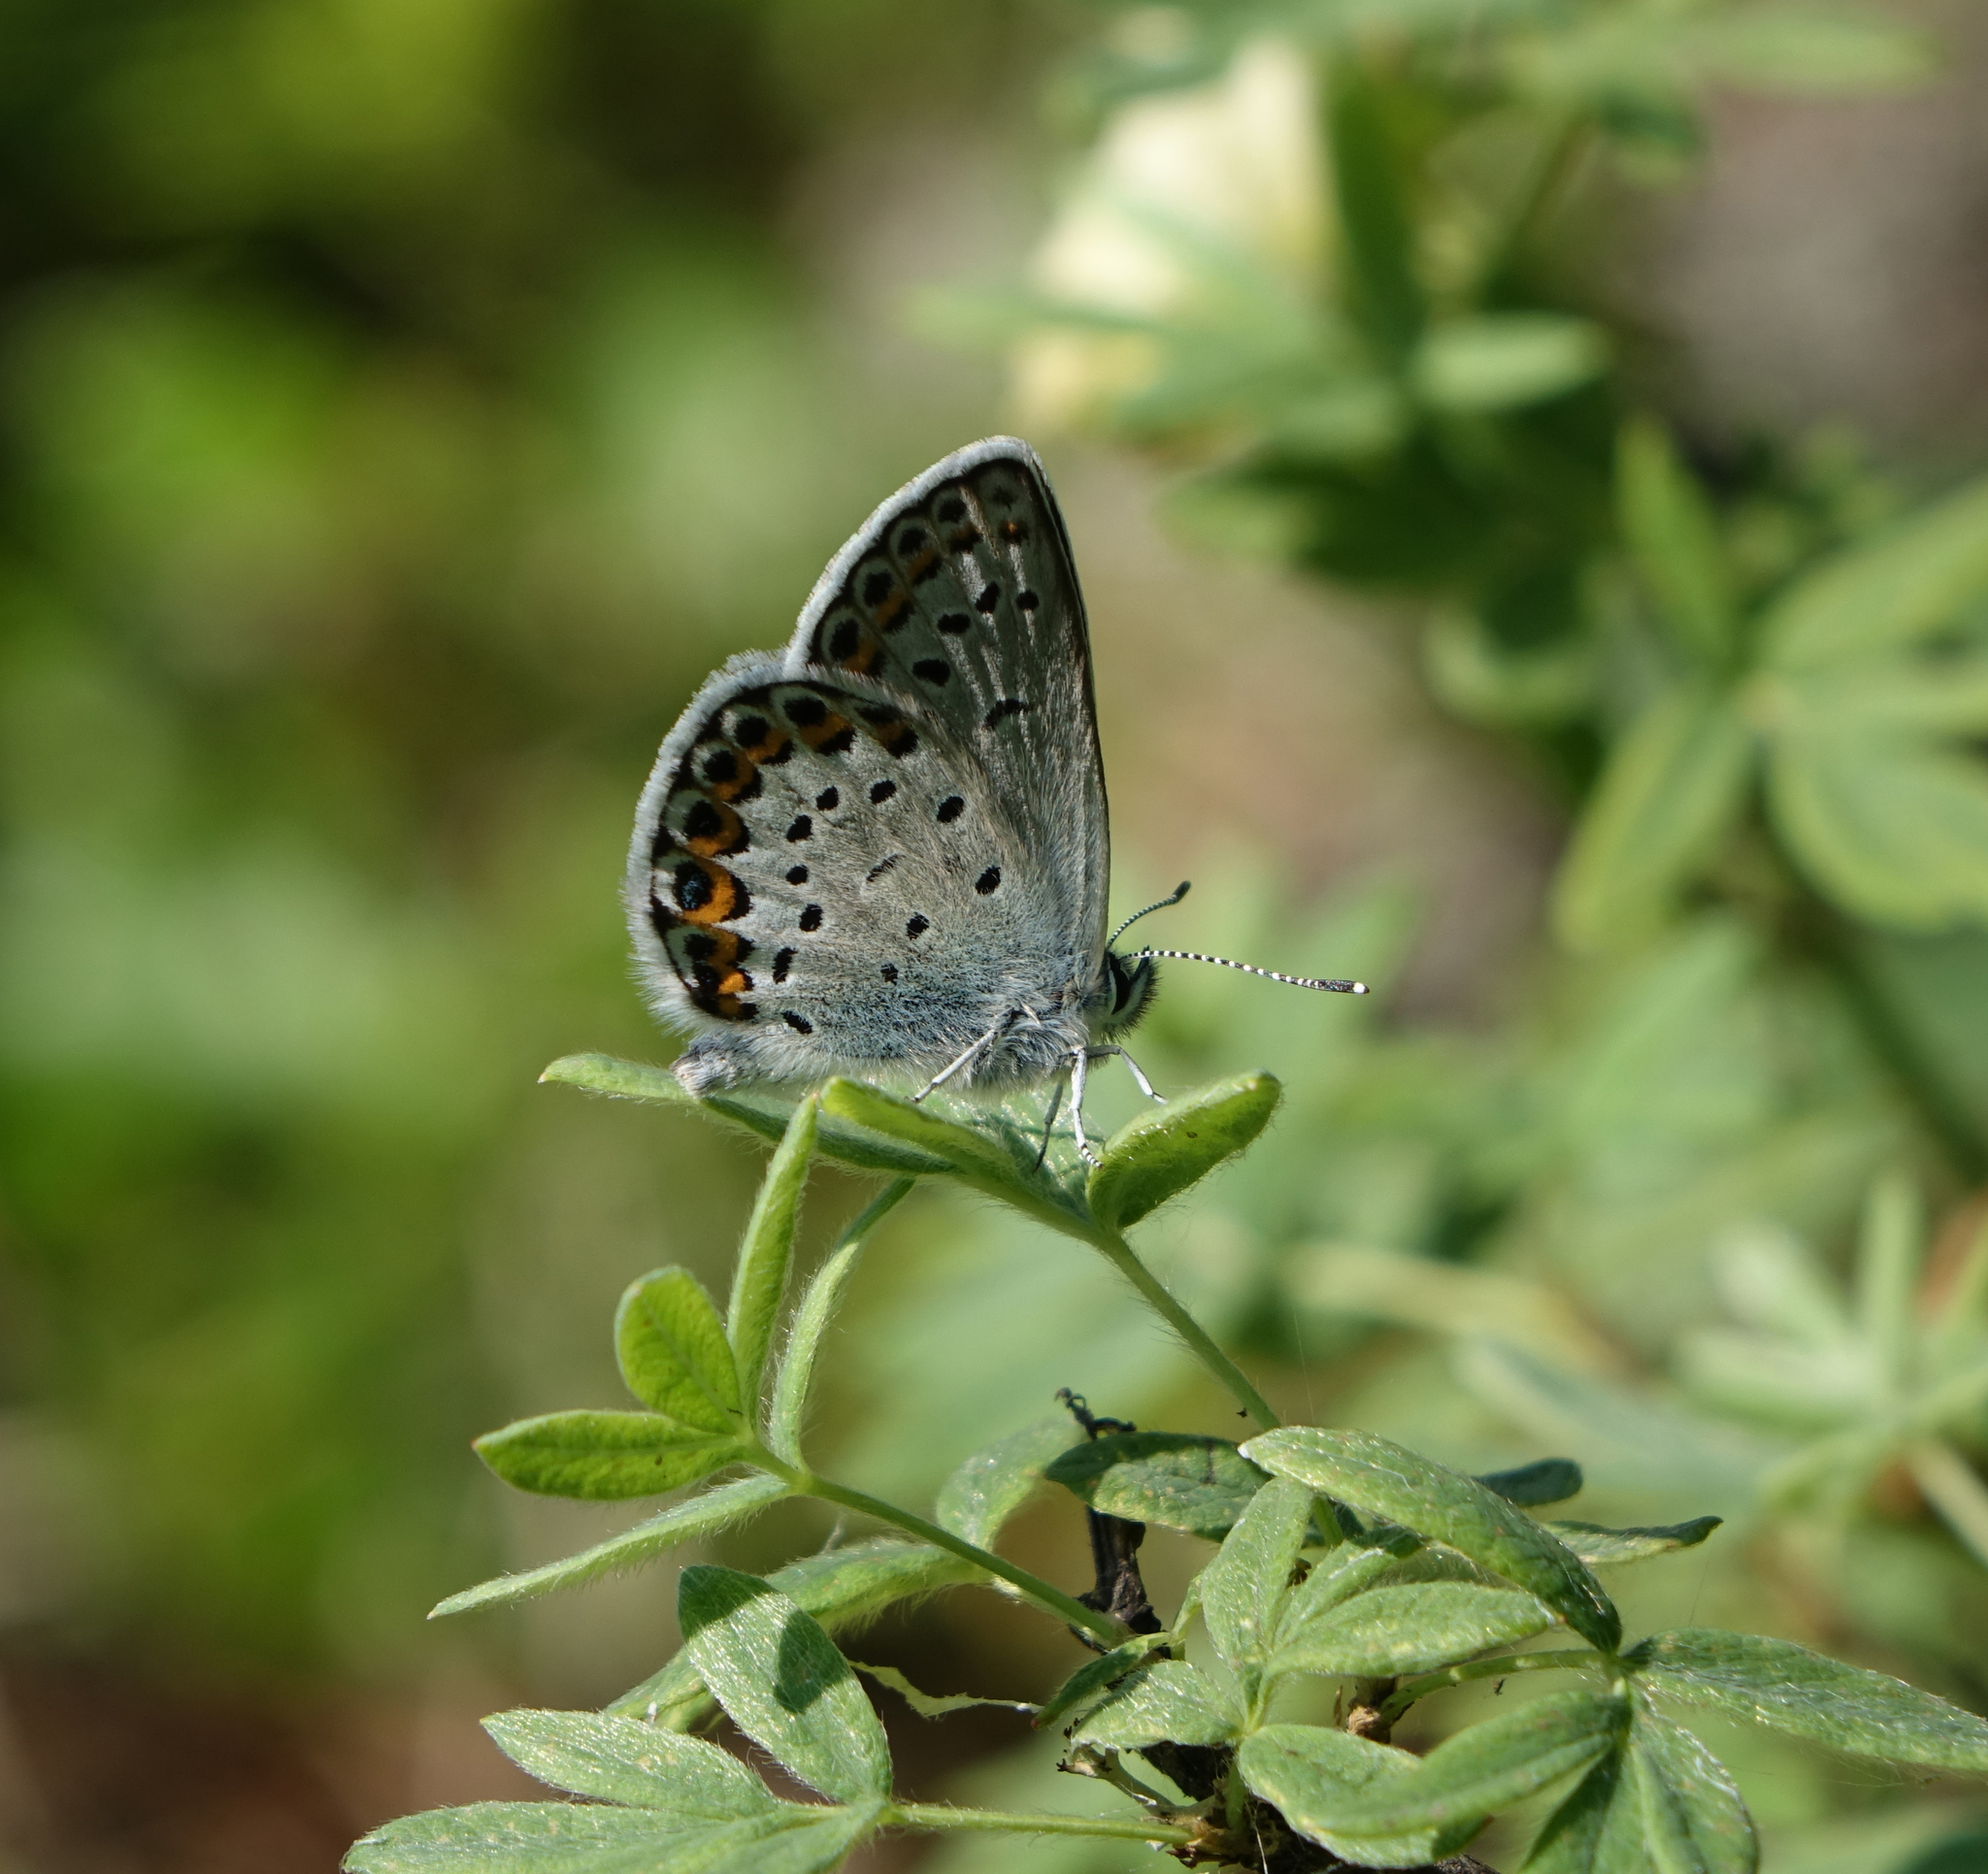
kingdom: Plantae
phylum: Tracheophyta
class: Magnoliopsida
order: Rosales
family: Rosaceae
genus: Dasiphora
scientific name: Dasiphora fruticosa
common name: Shrubby cinquefoil
